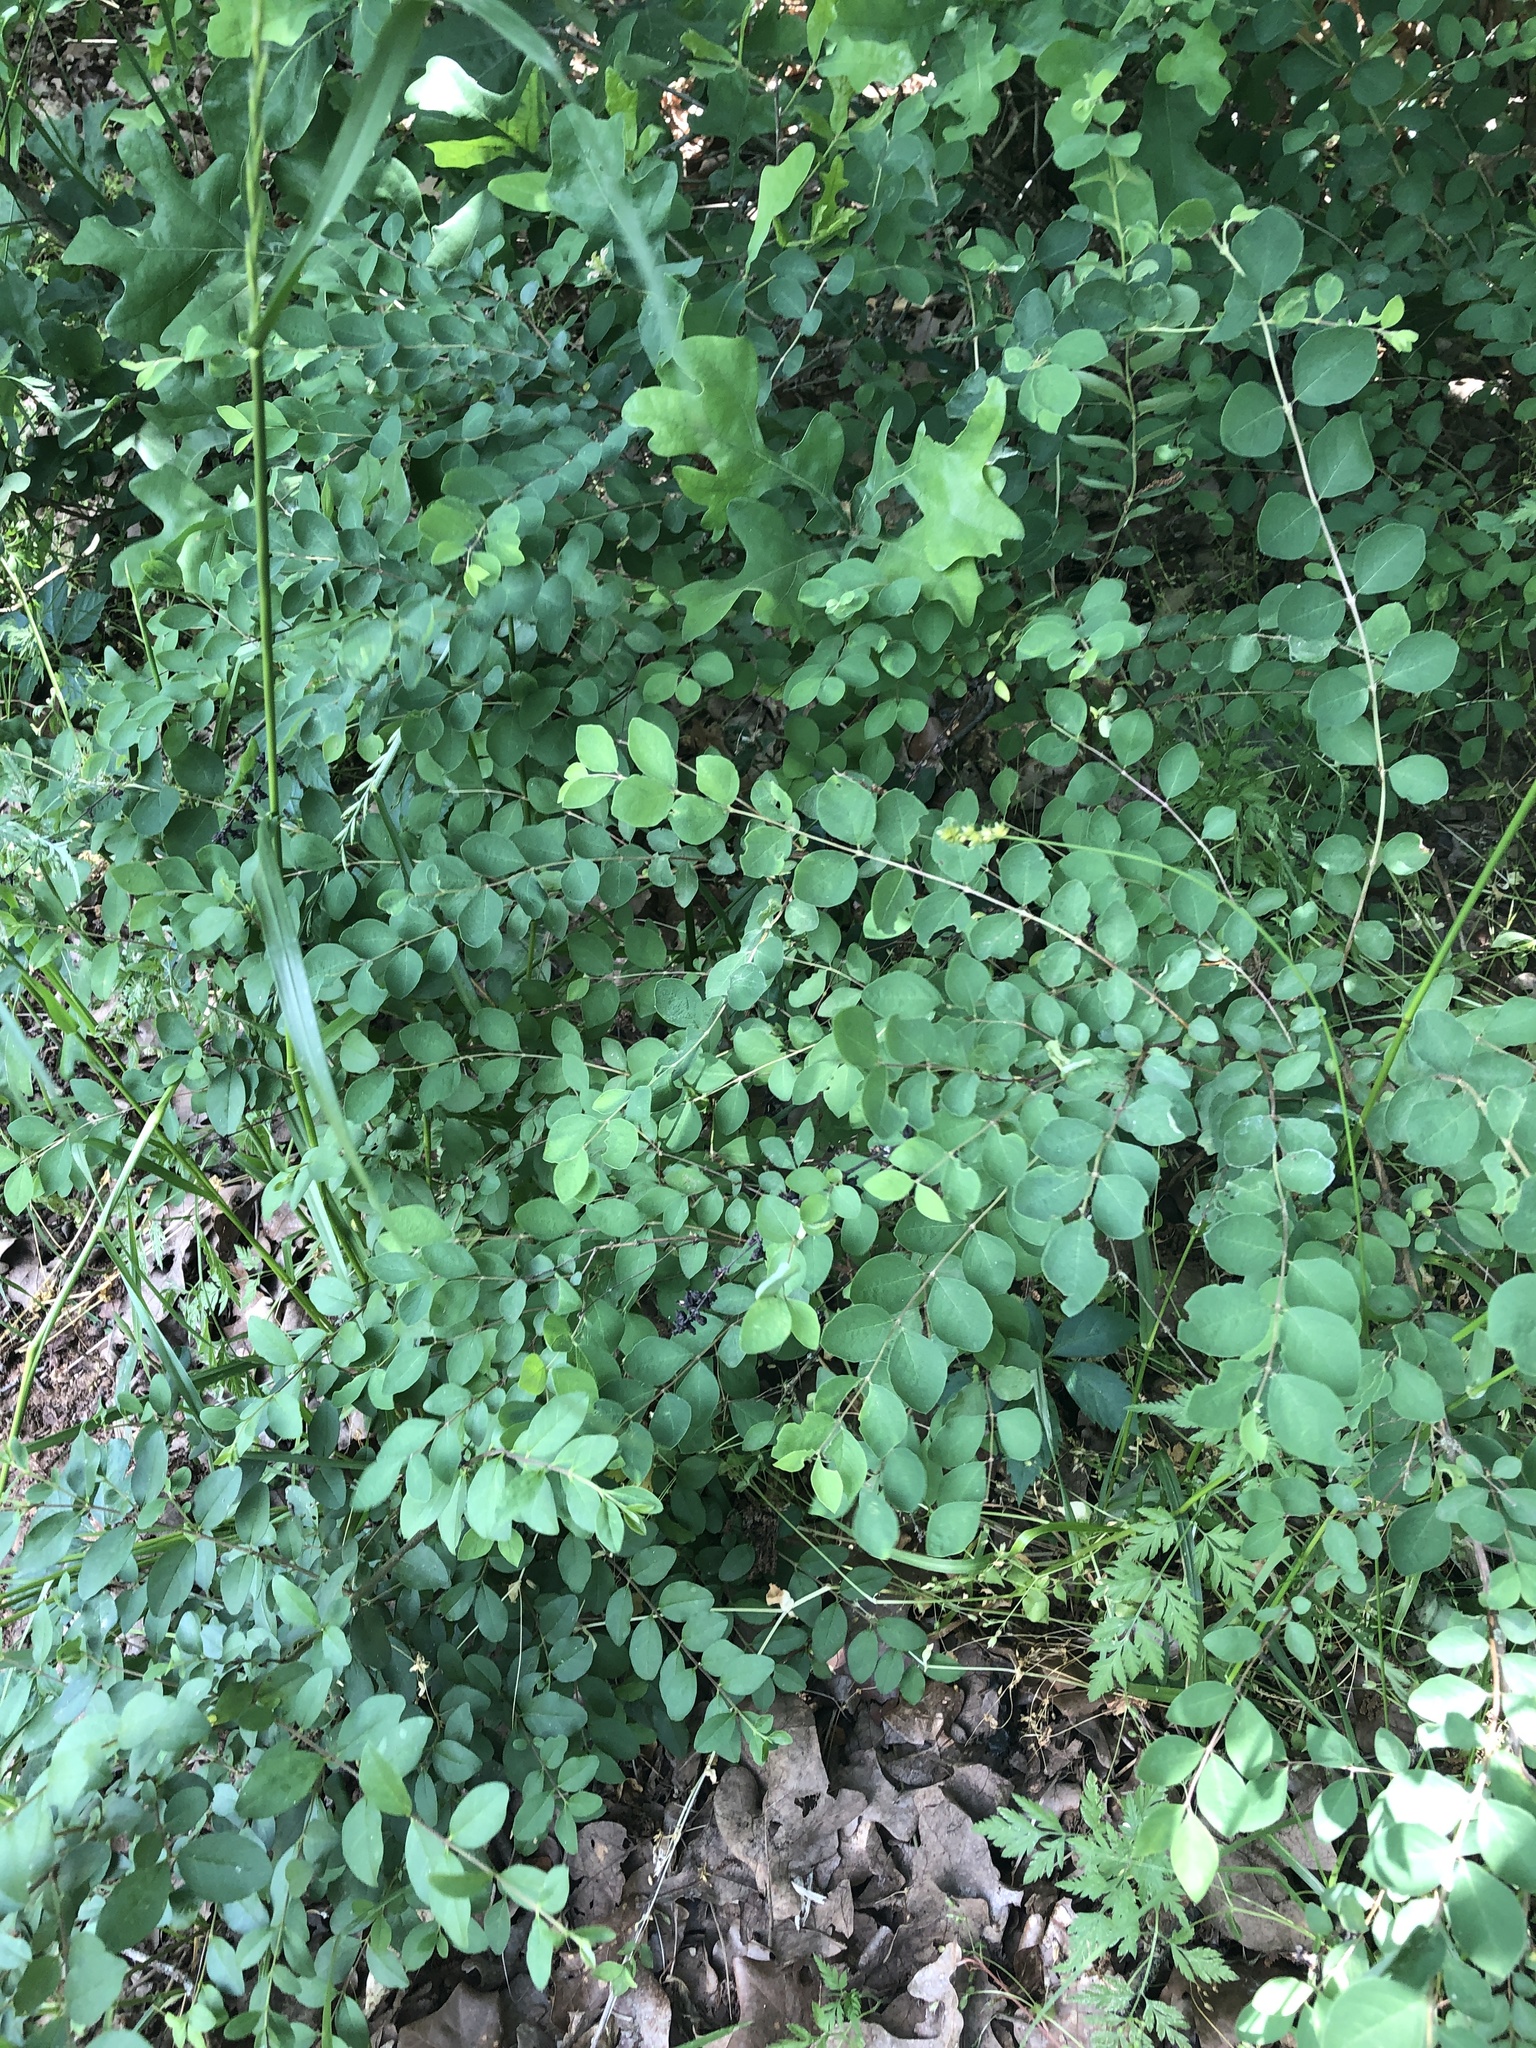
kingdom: Plantae
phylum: Tracheophyta
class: Magnoliopsida
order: Dipsacales
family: Caprifoliaceae
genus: Symphoricarpos
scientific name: Symphoricarpos orbiculatus
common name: Coralberry
